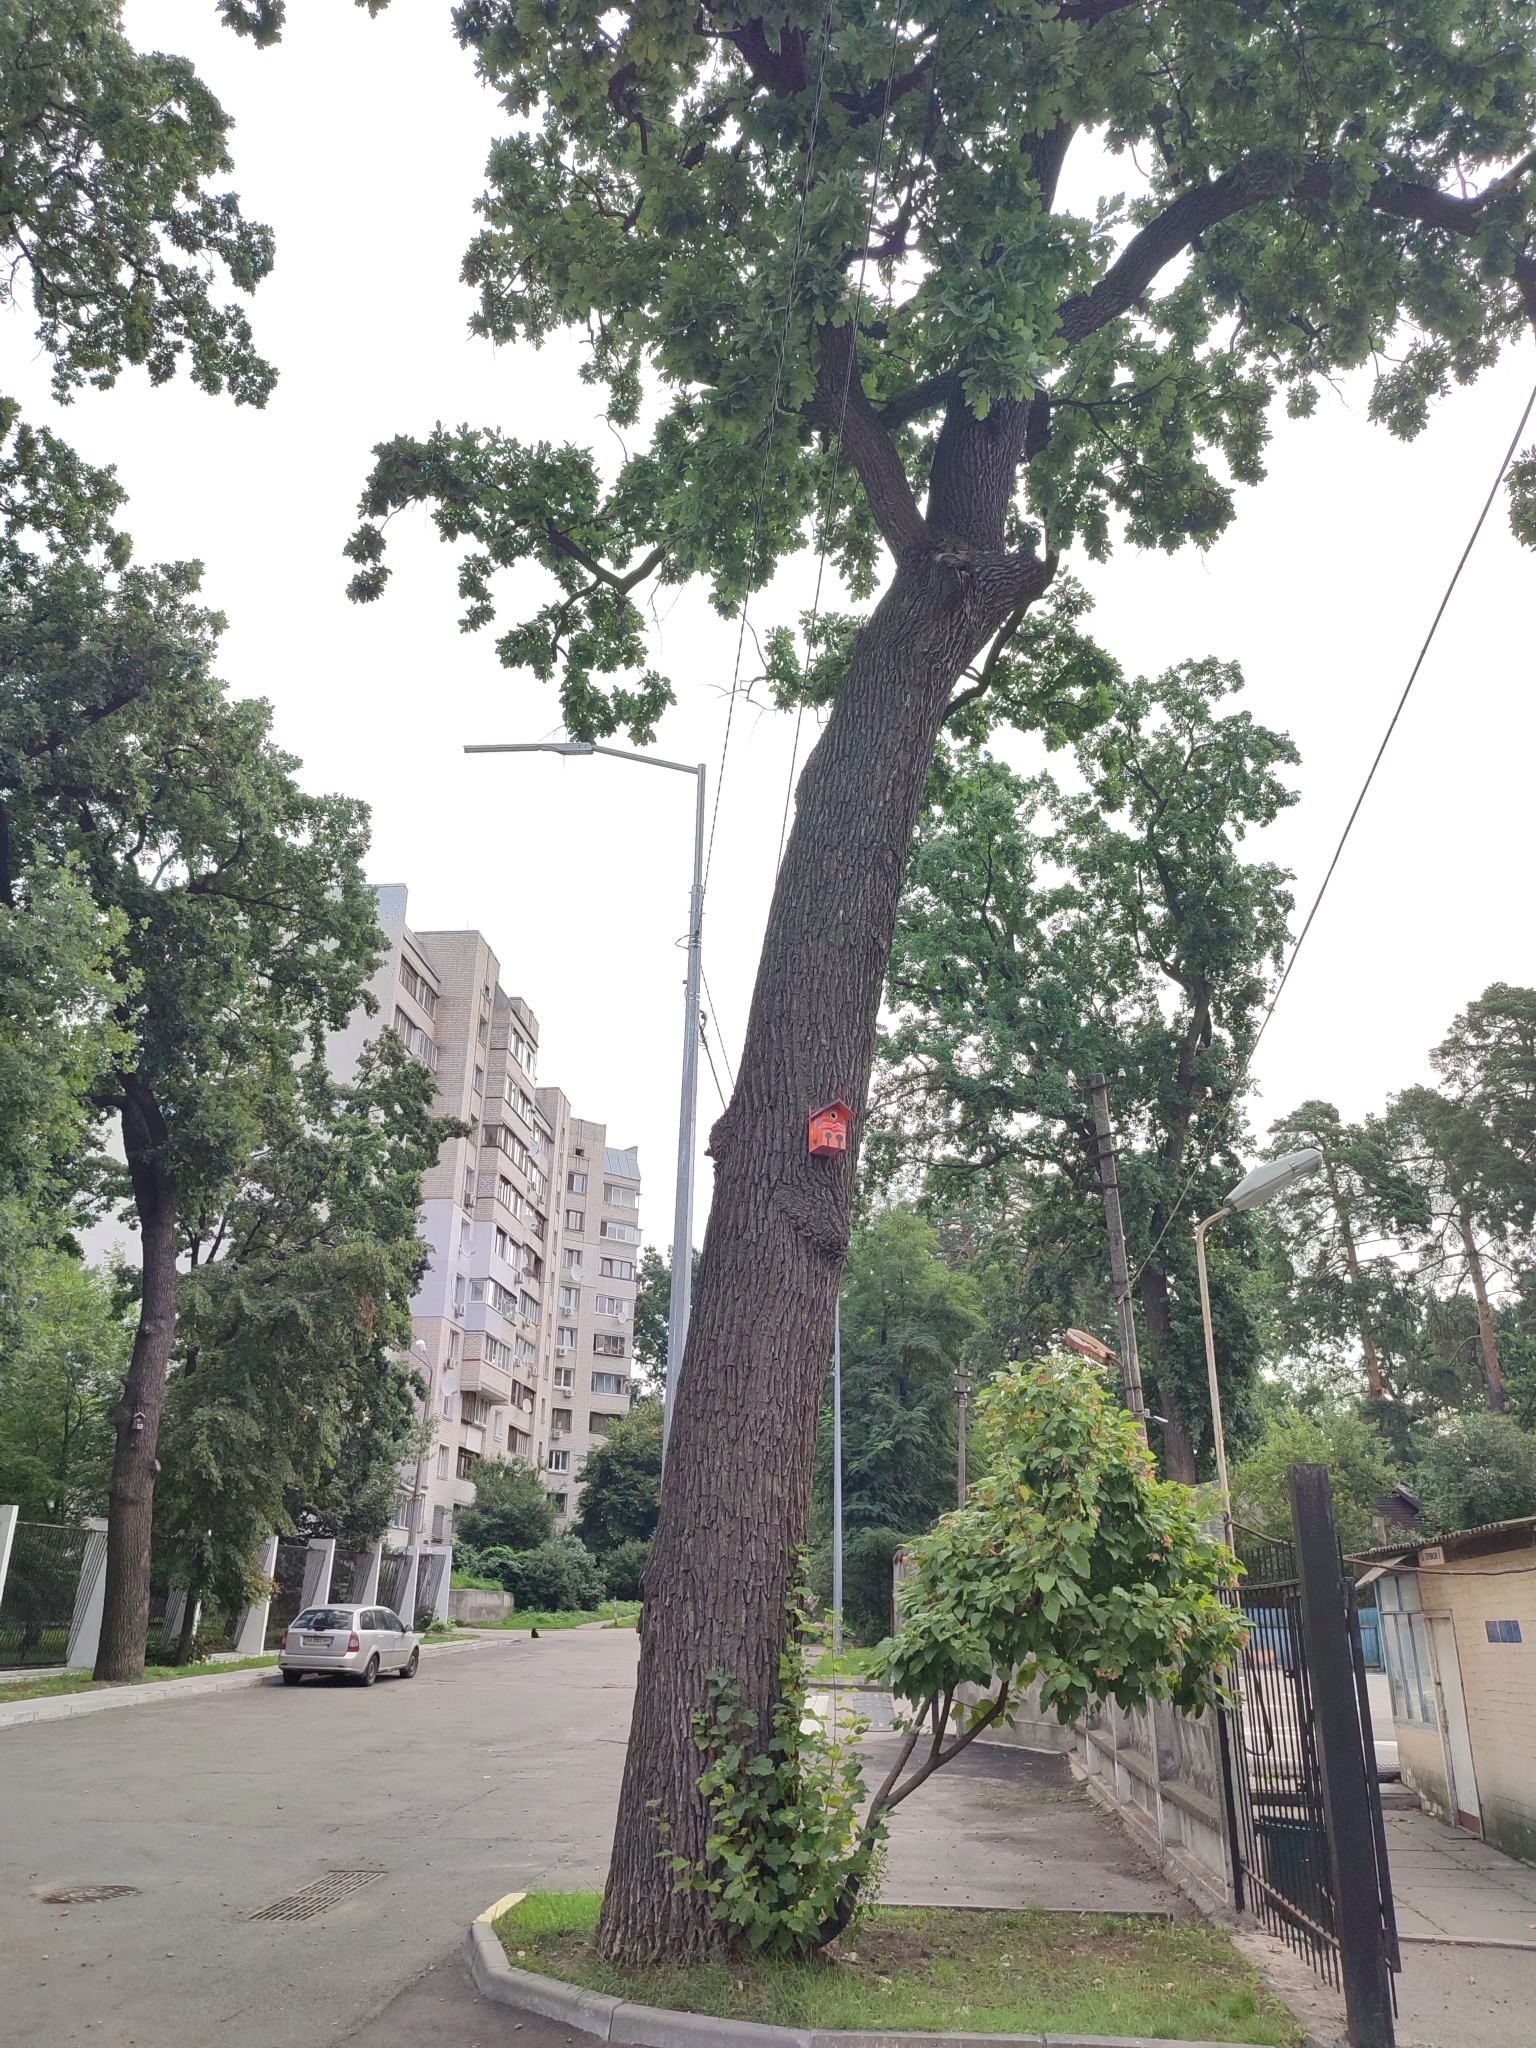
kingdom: Plantae
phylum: Tracheophyta
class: Magnoliopsida
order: Fagales
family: Fagaceae
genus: Quercus
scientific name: Quercus robur
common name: Pedunculate oak
